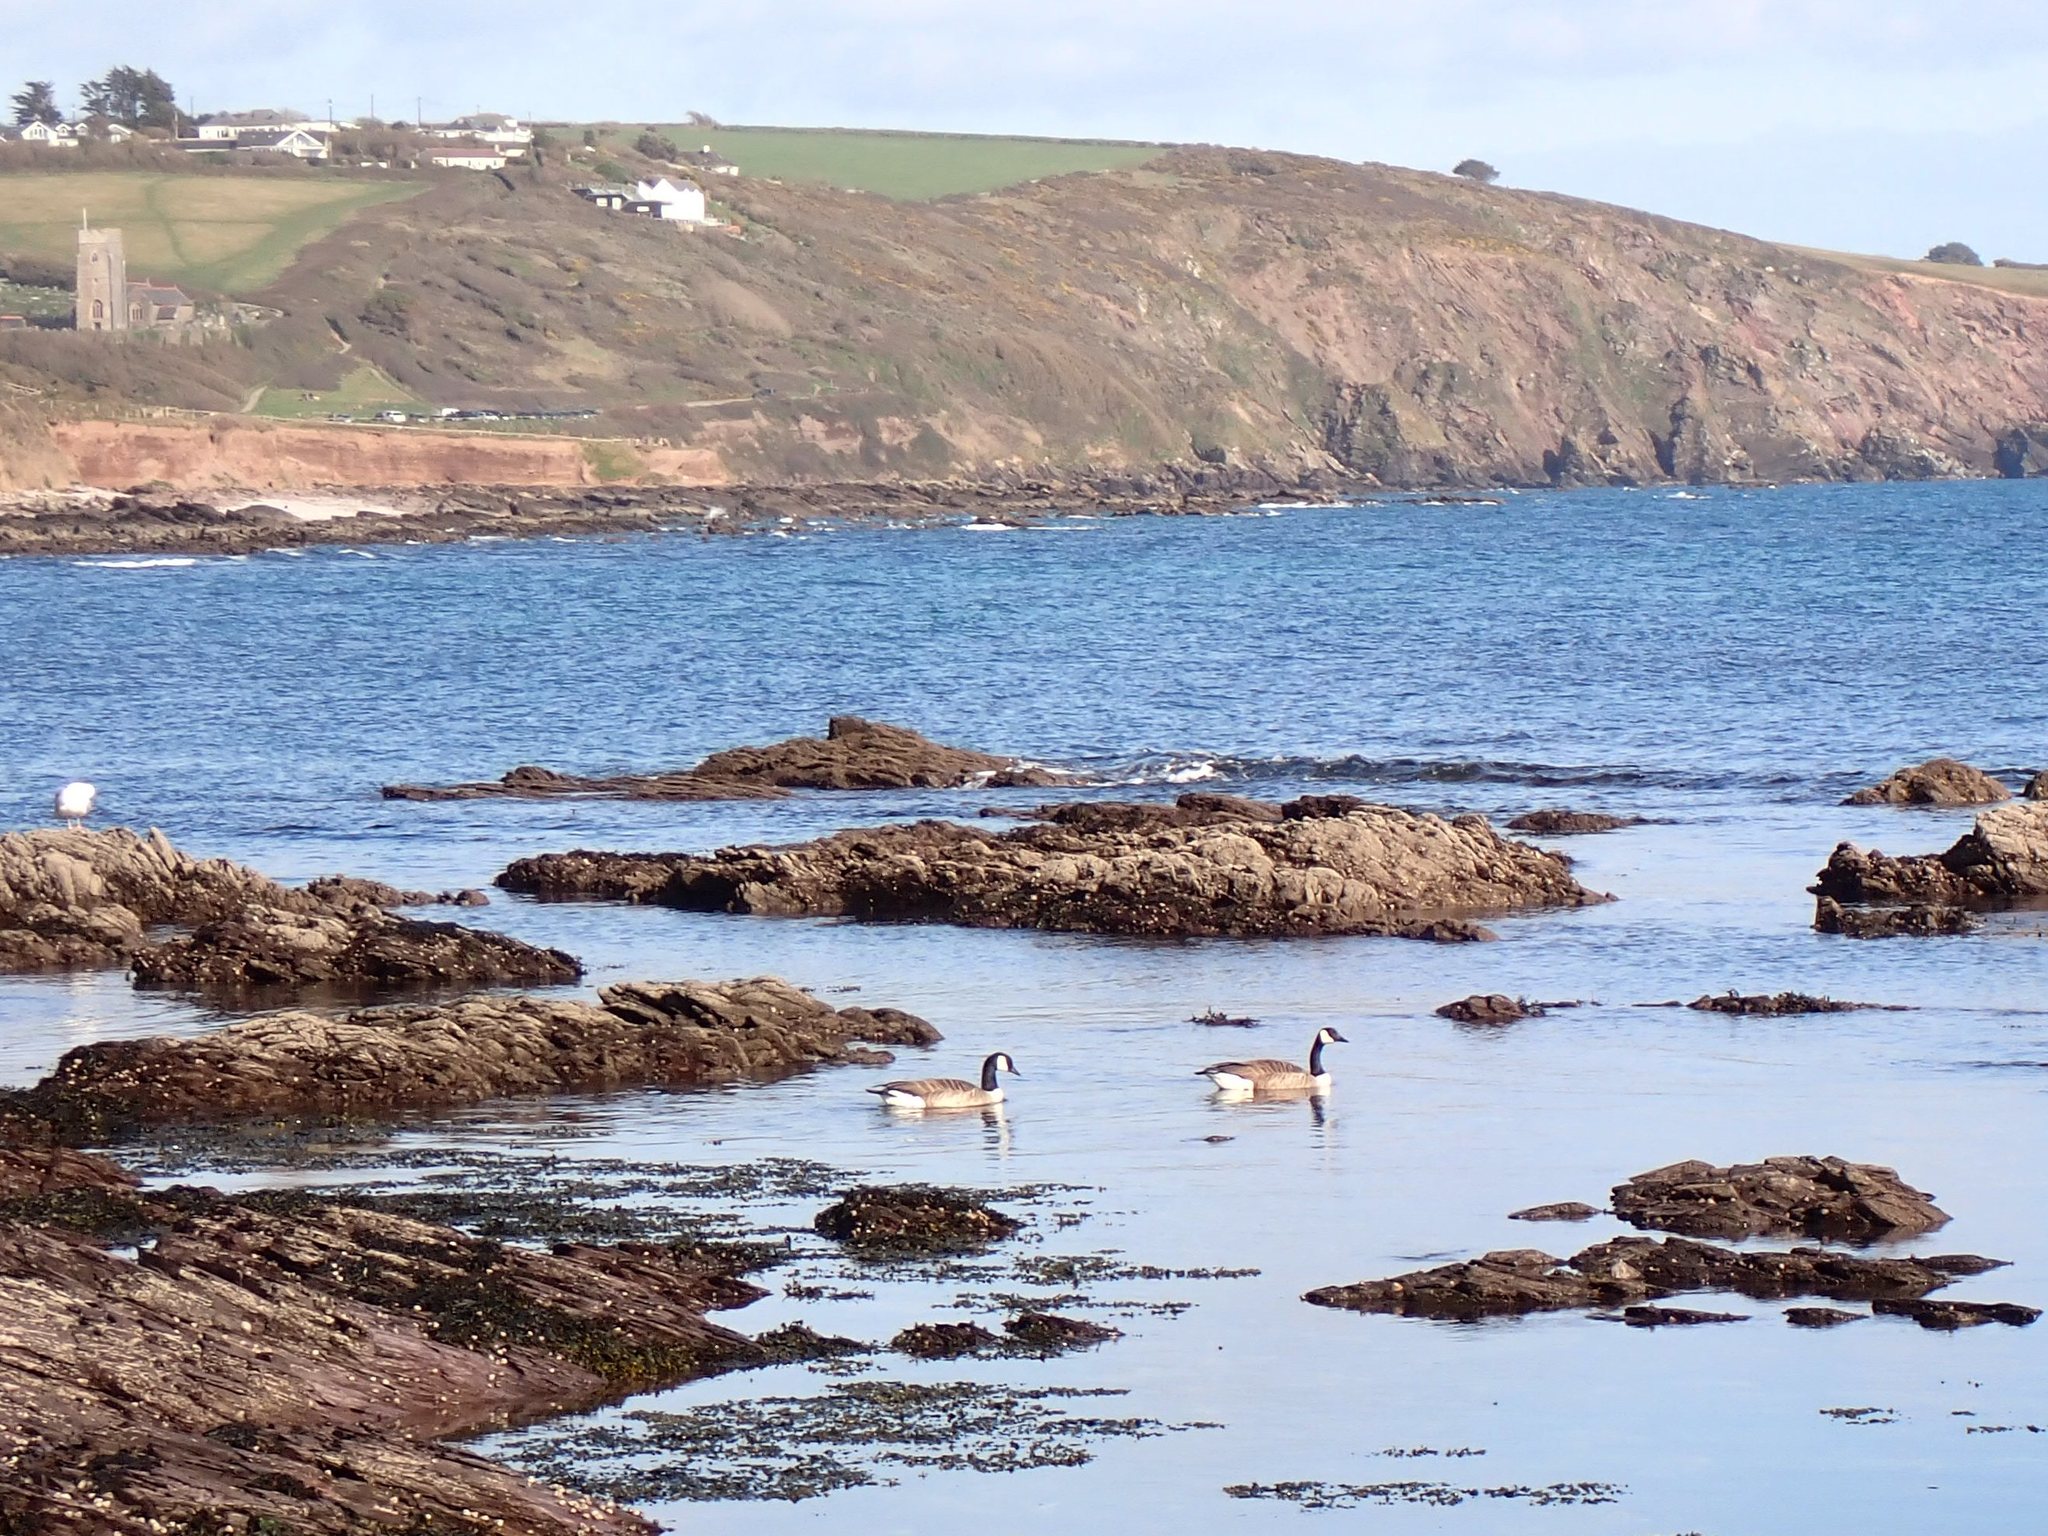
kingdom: Animalia
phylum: Chordata
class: Aves
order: Anseriformes
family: Anatidae
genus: Branta
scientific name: Branta canadensis
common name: Canada goose
